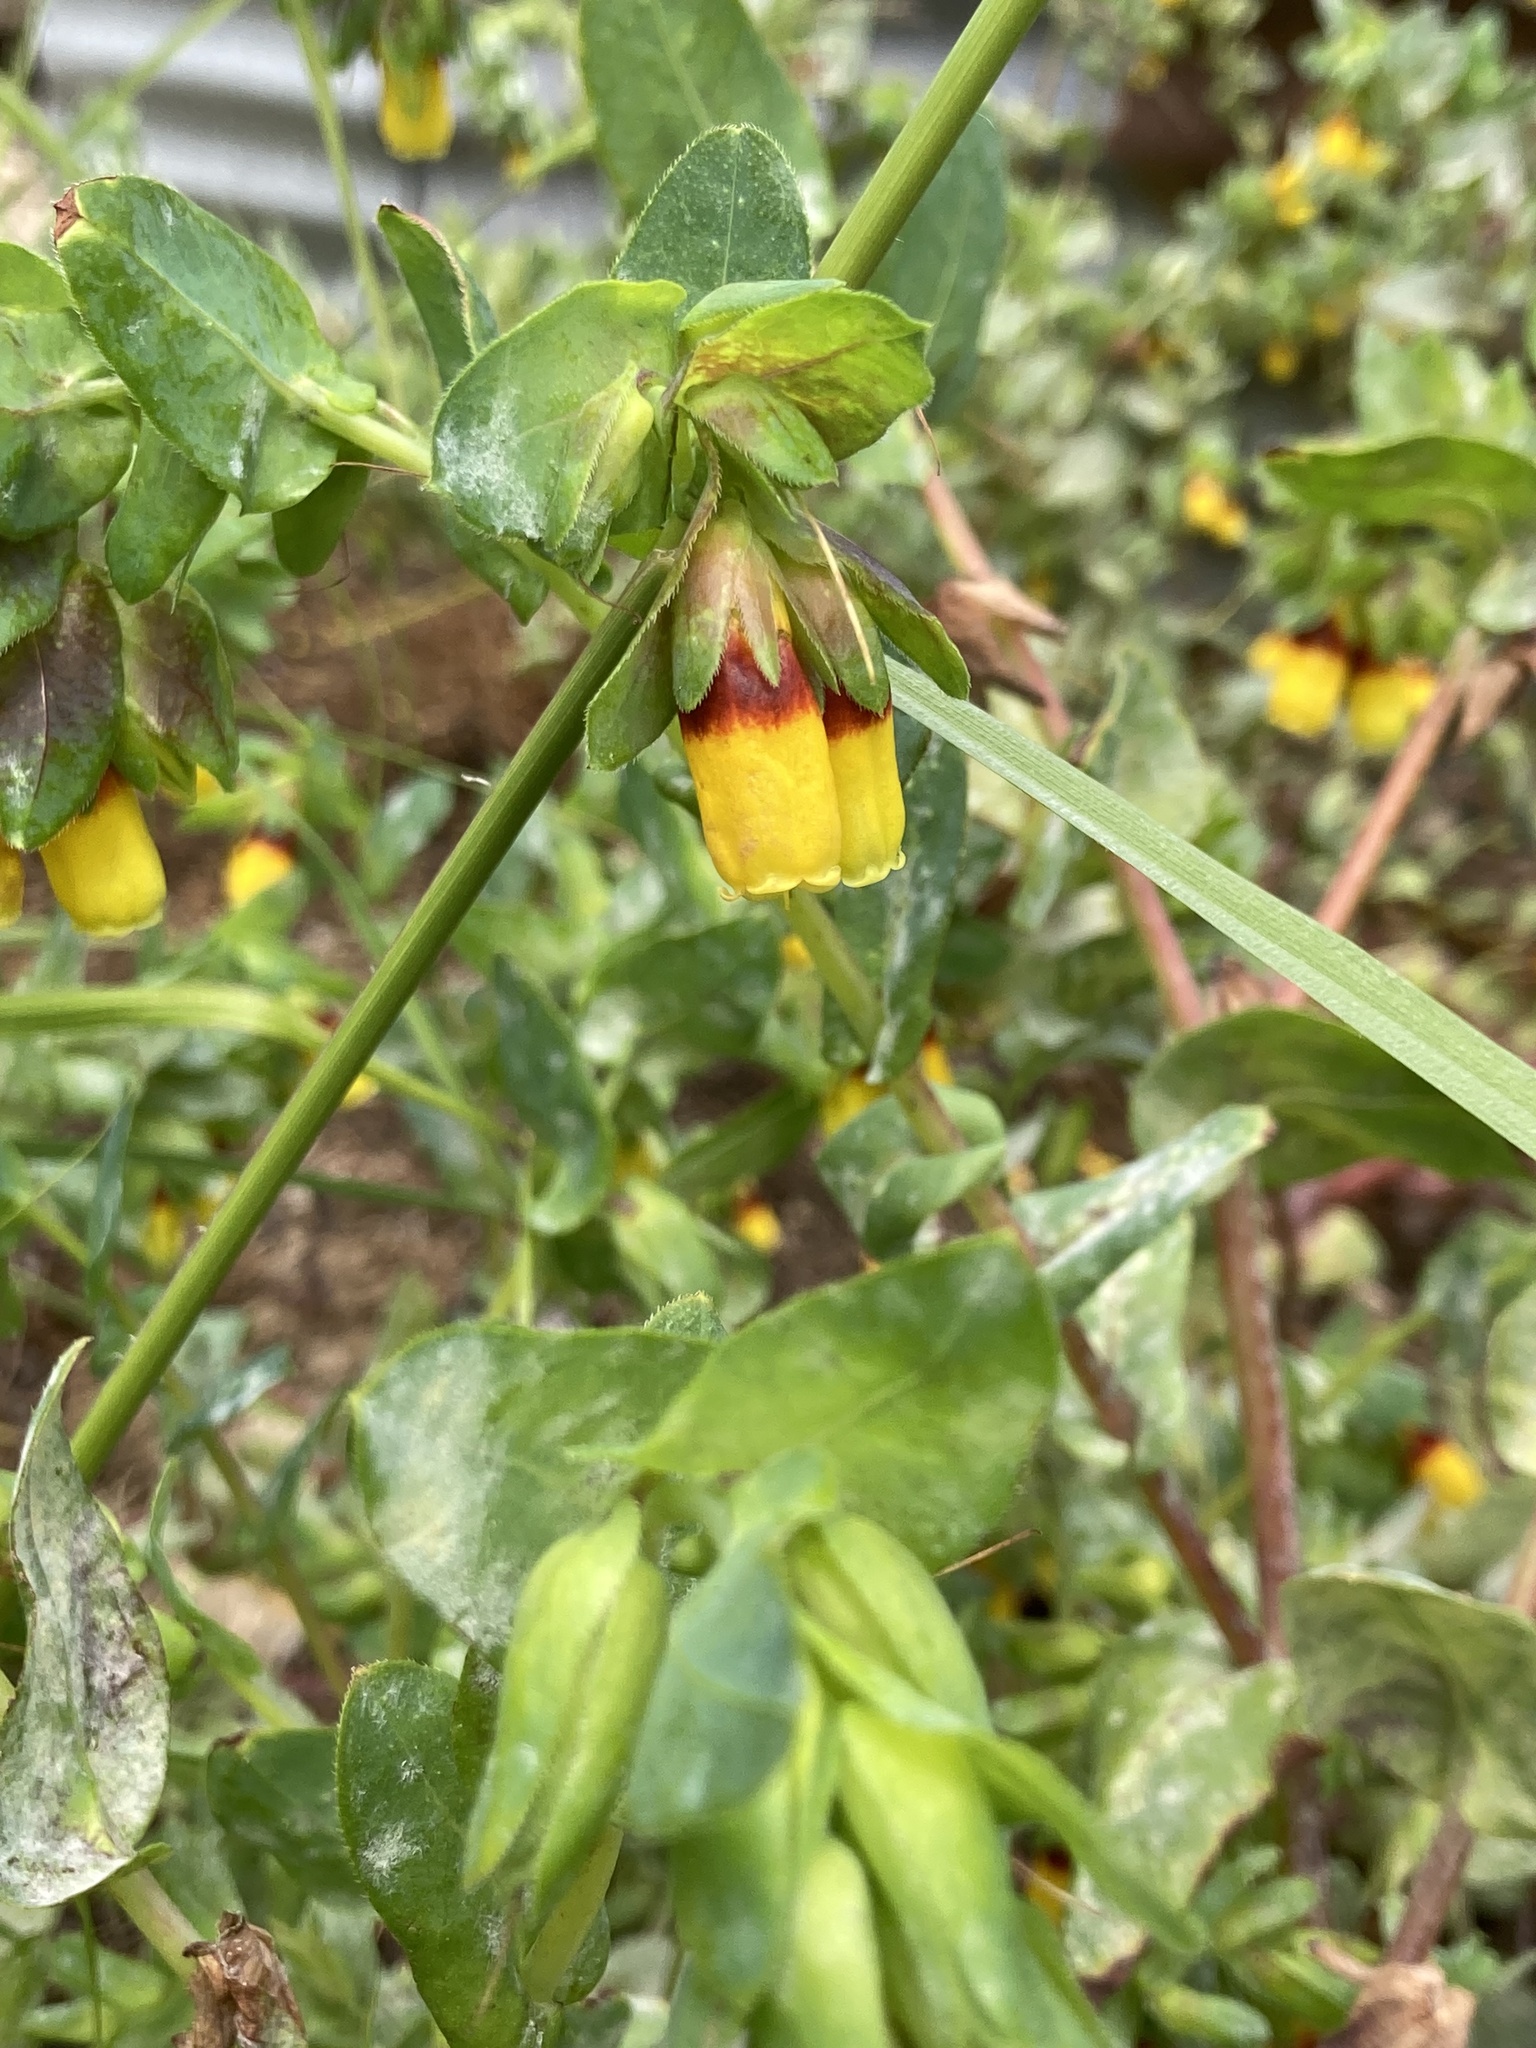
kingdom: Plantae
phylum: Tracheophyta
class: Magnoliopsida
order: Boraginales
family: Boraginaceae
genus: Cerinthe
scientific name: Cerinthe major
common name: Greater honeywort
